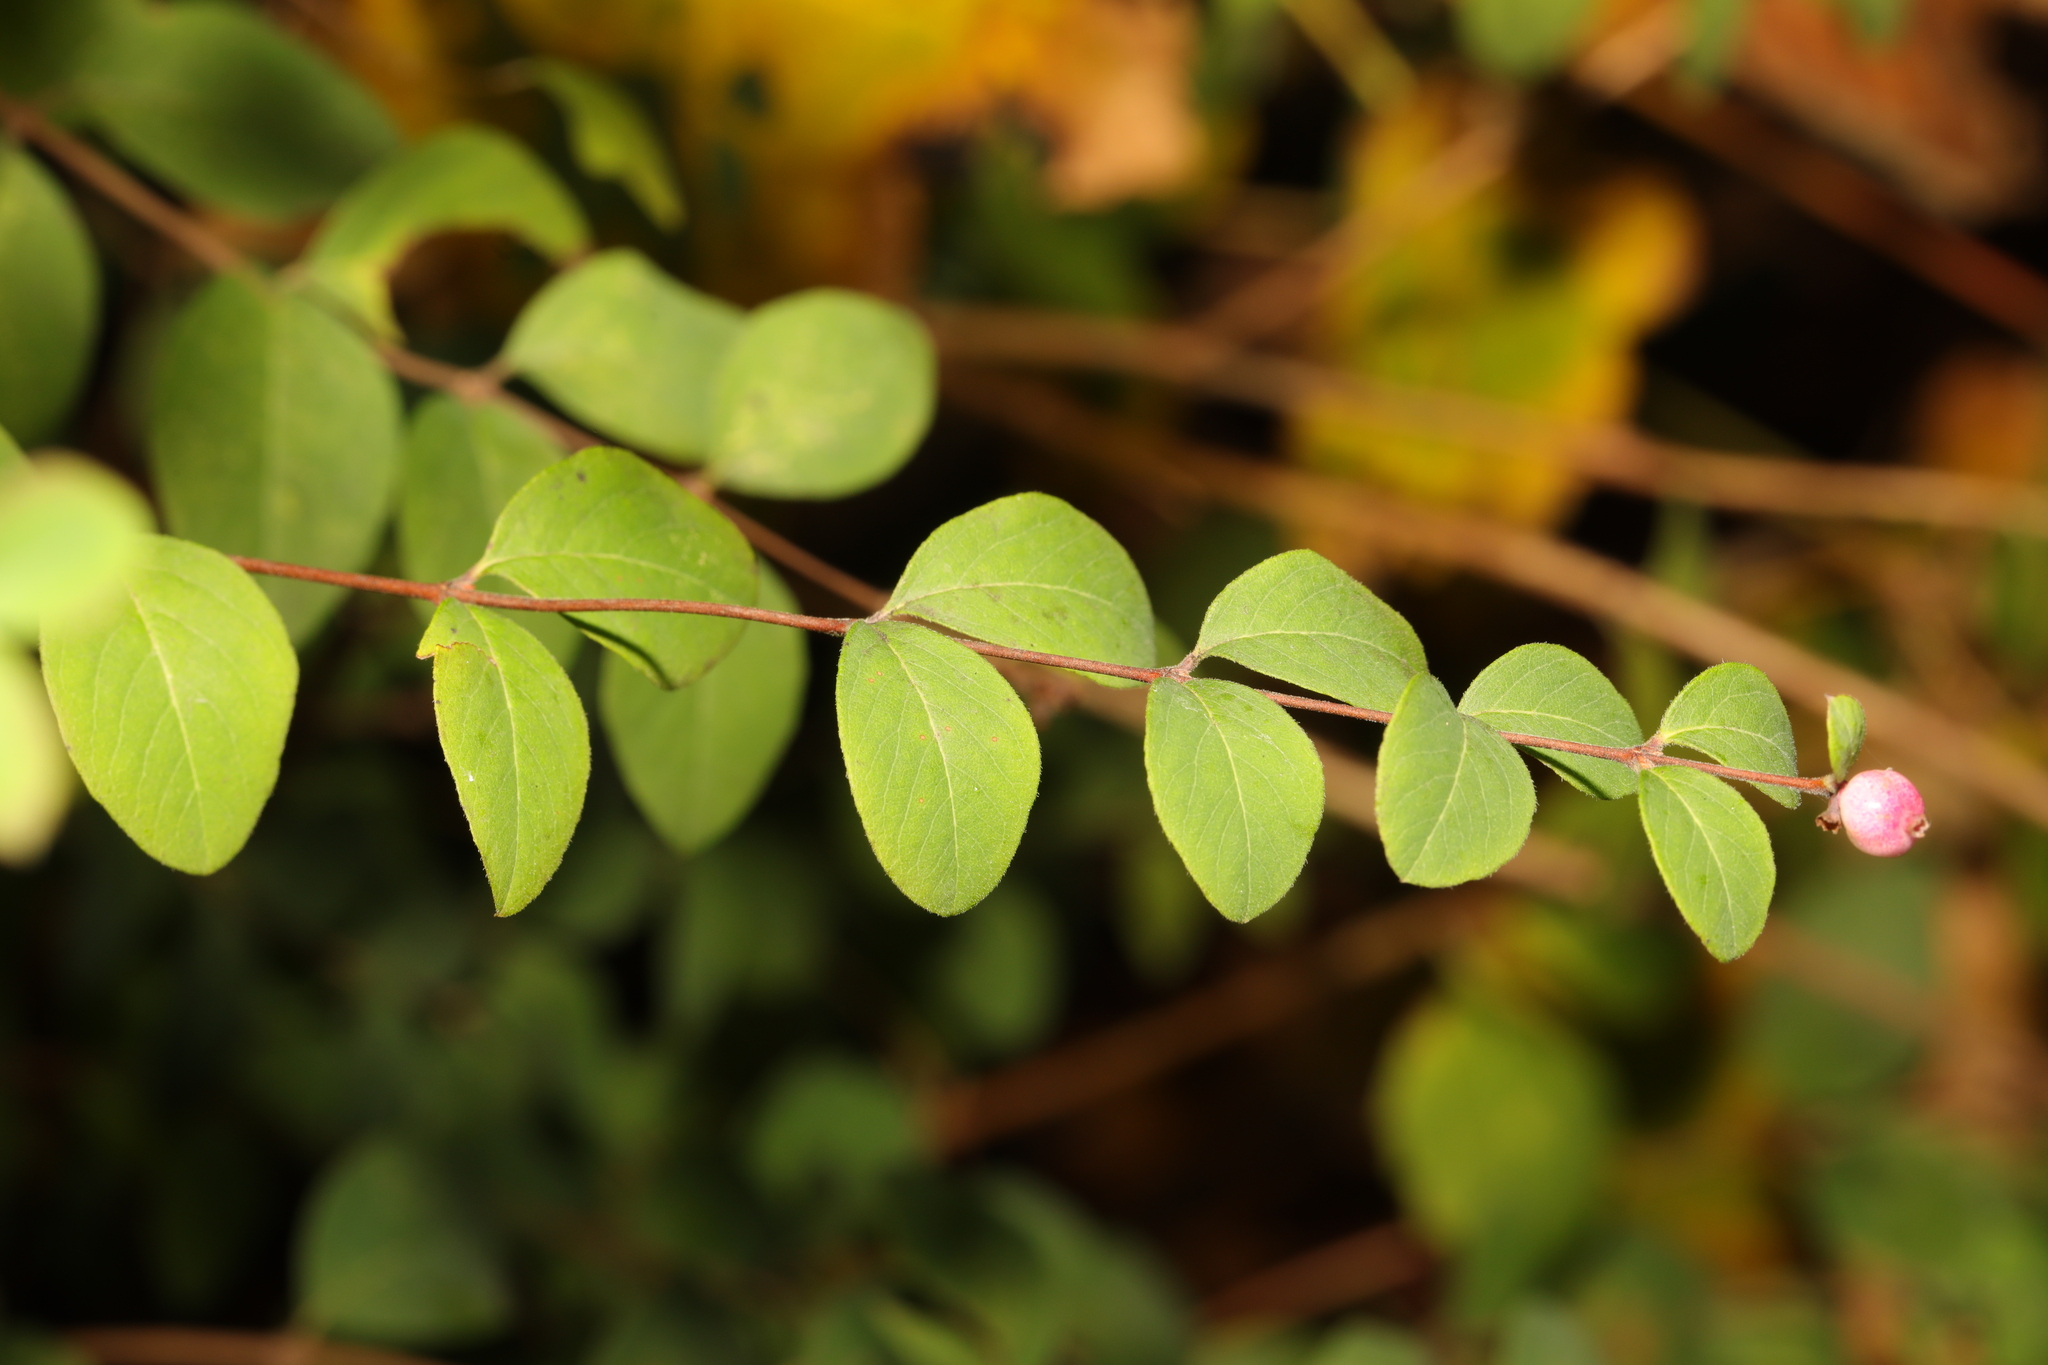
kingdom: Plantae
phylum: Tracheophyta
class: Magnoliopsida
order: Dipsacales
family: Caprifoliaceae
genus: Symphoricarpos
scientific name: Symphoricarpos chenaultii
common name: Hybrid coralberry
